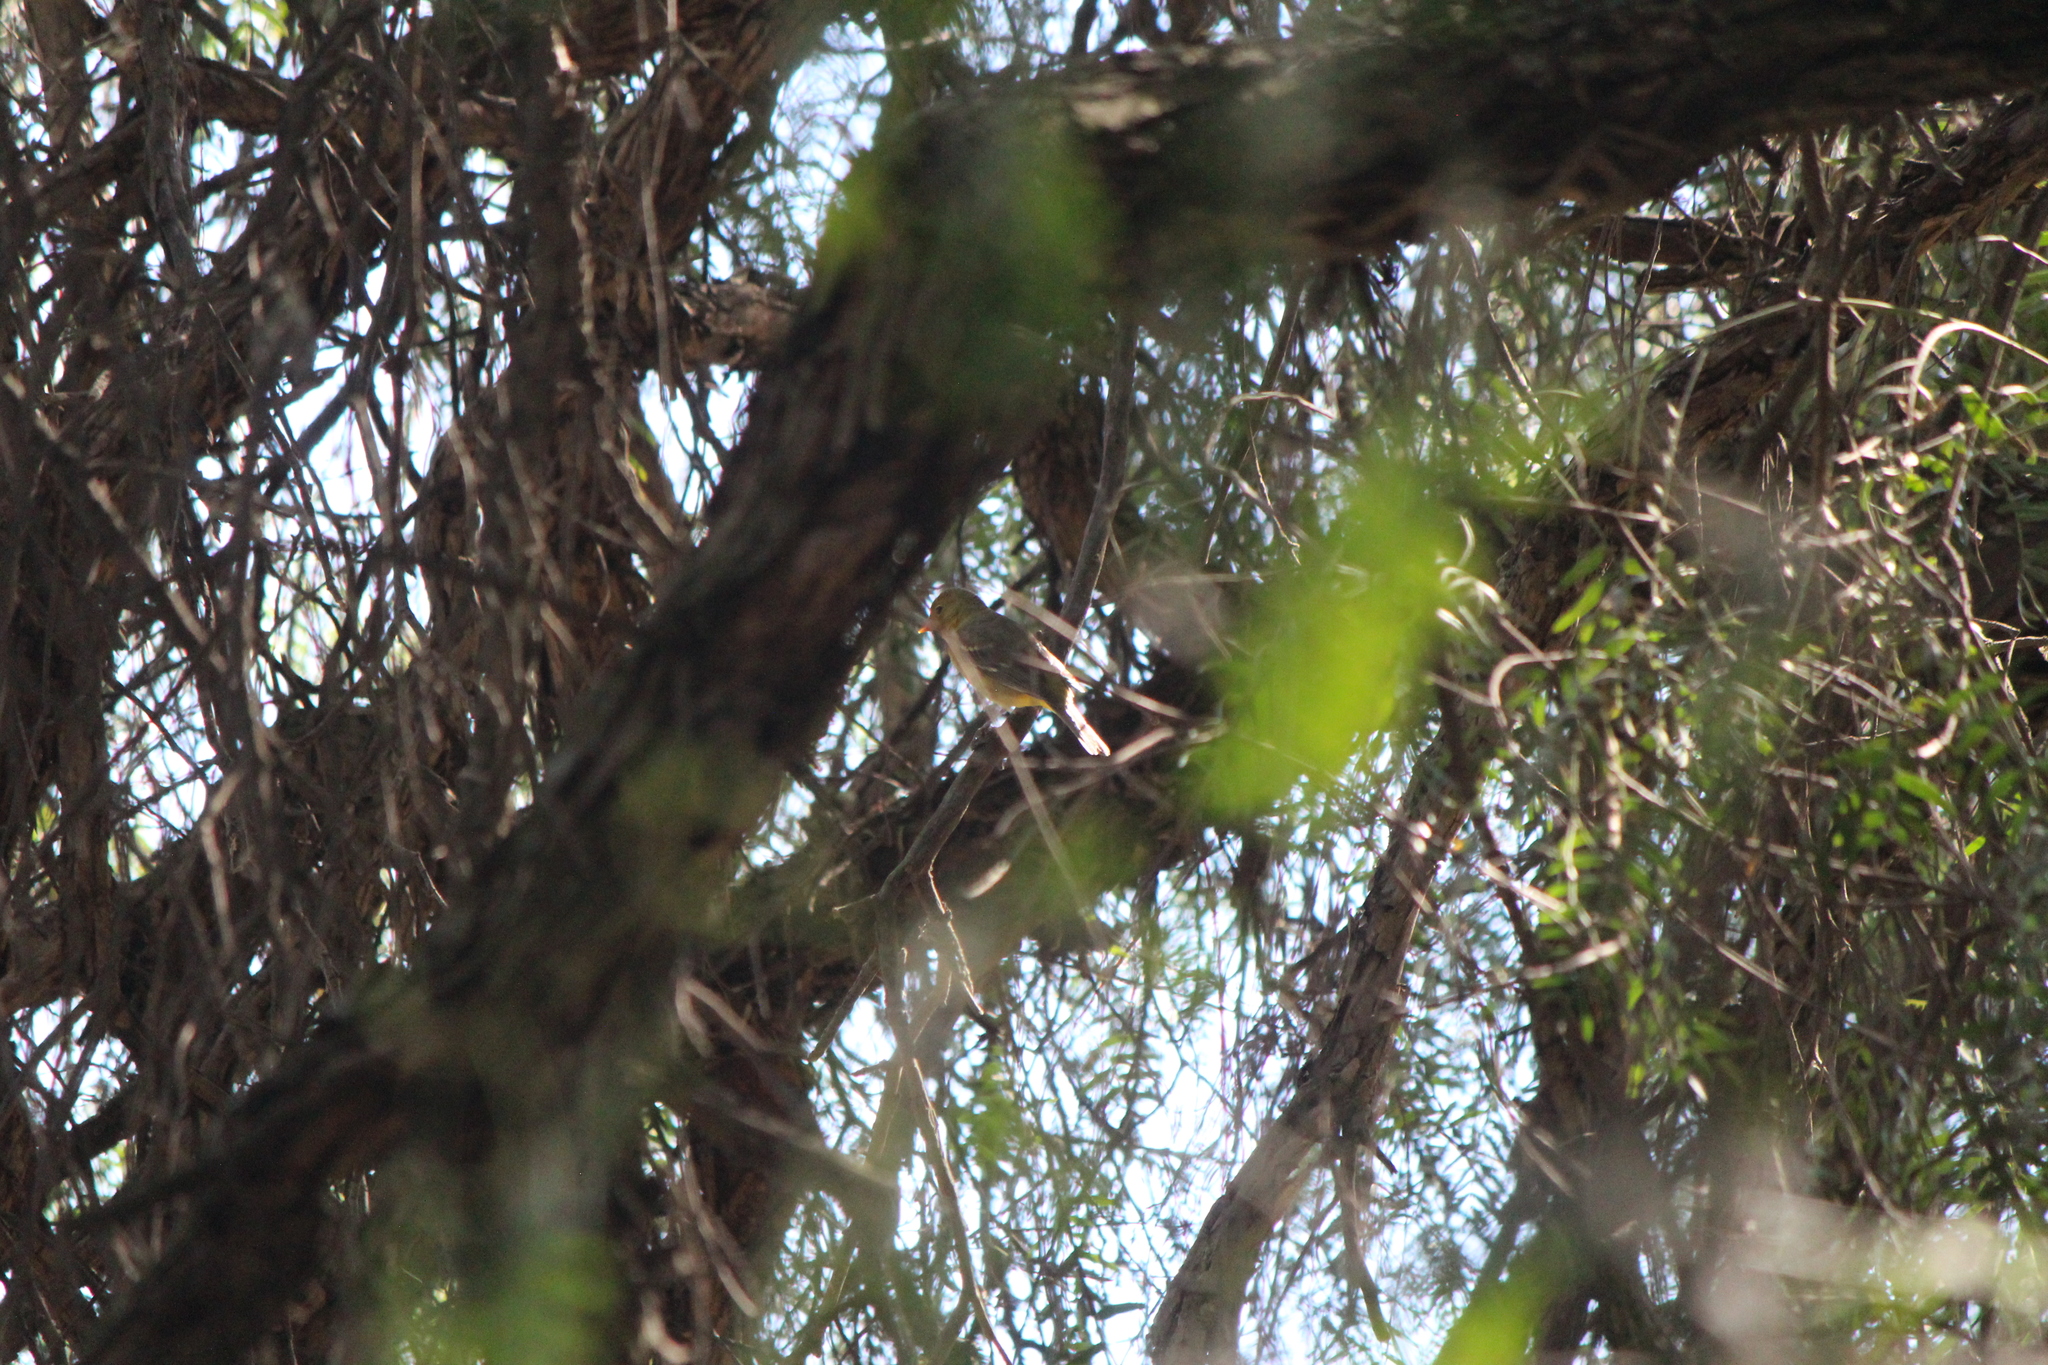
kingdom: Animalia
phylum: Chordata
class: Aves
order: Passeriformes
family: Cardinalidae
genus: Piranga
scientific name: Piranga ludoviciana
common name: Western tanager
